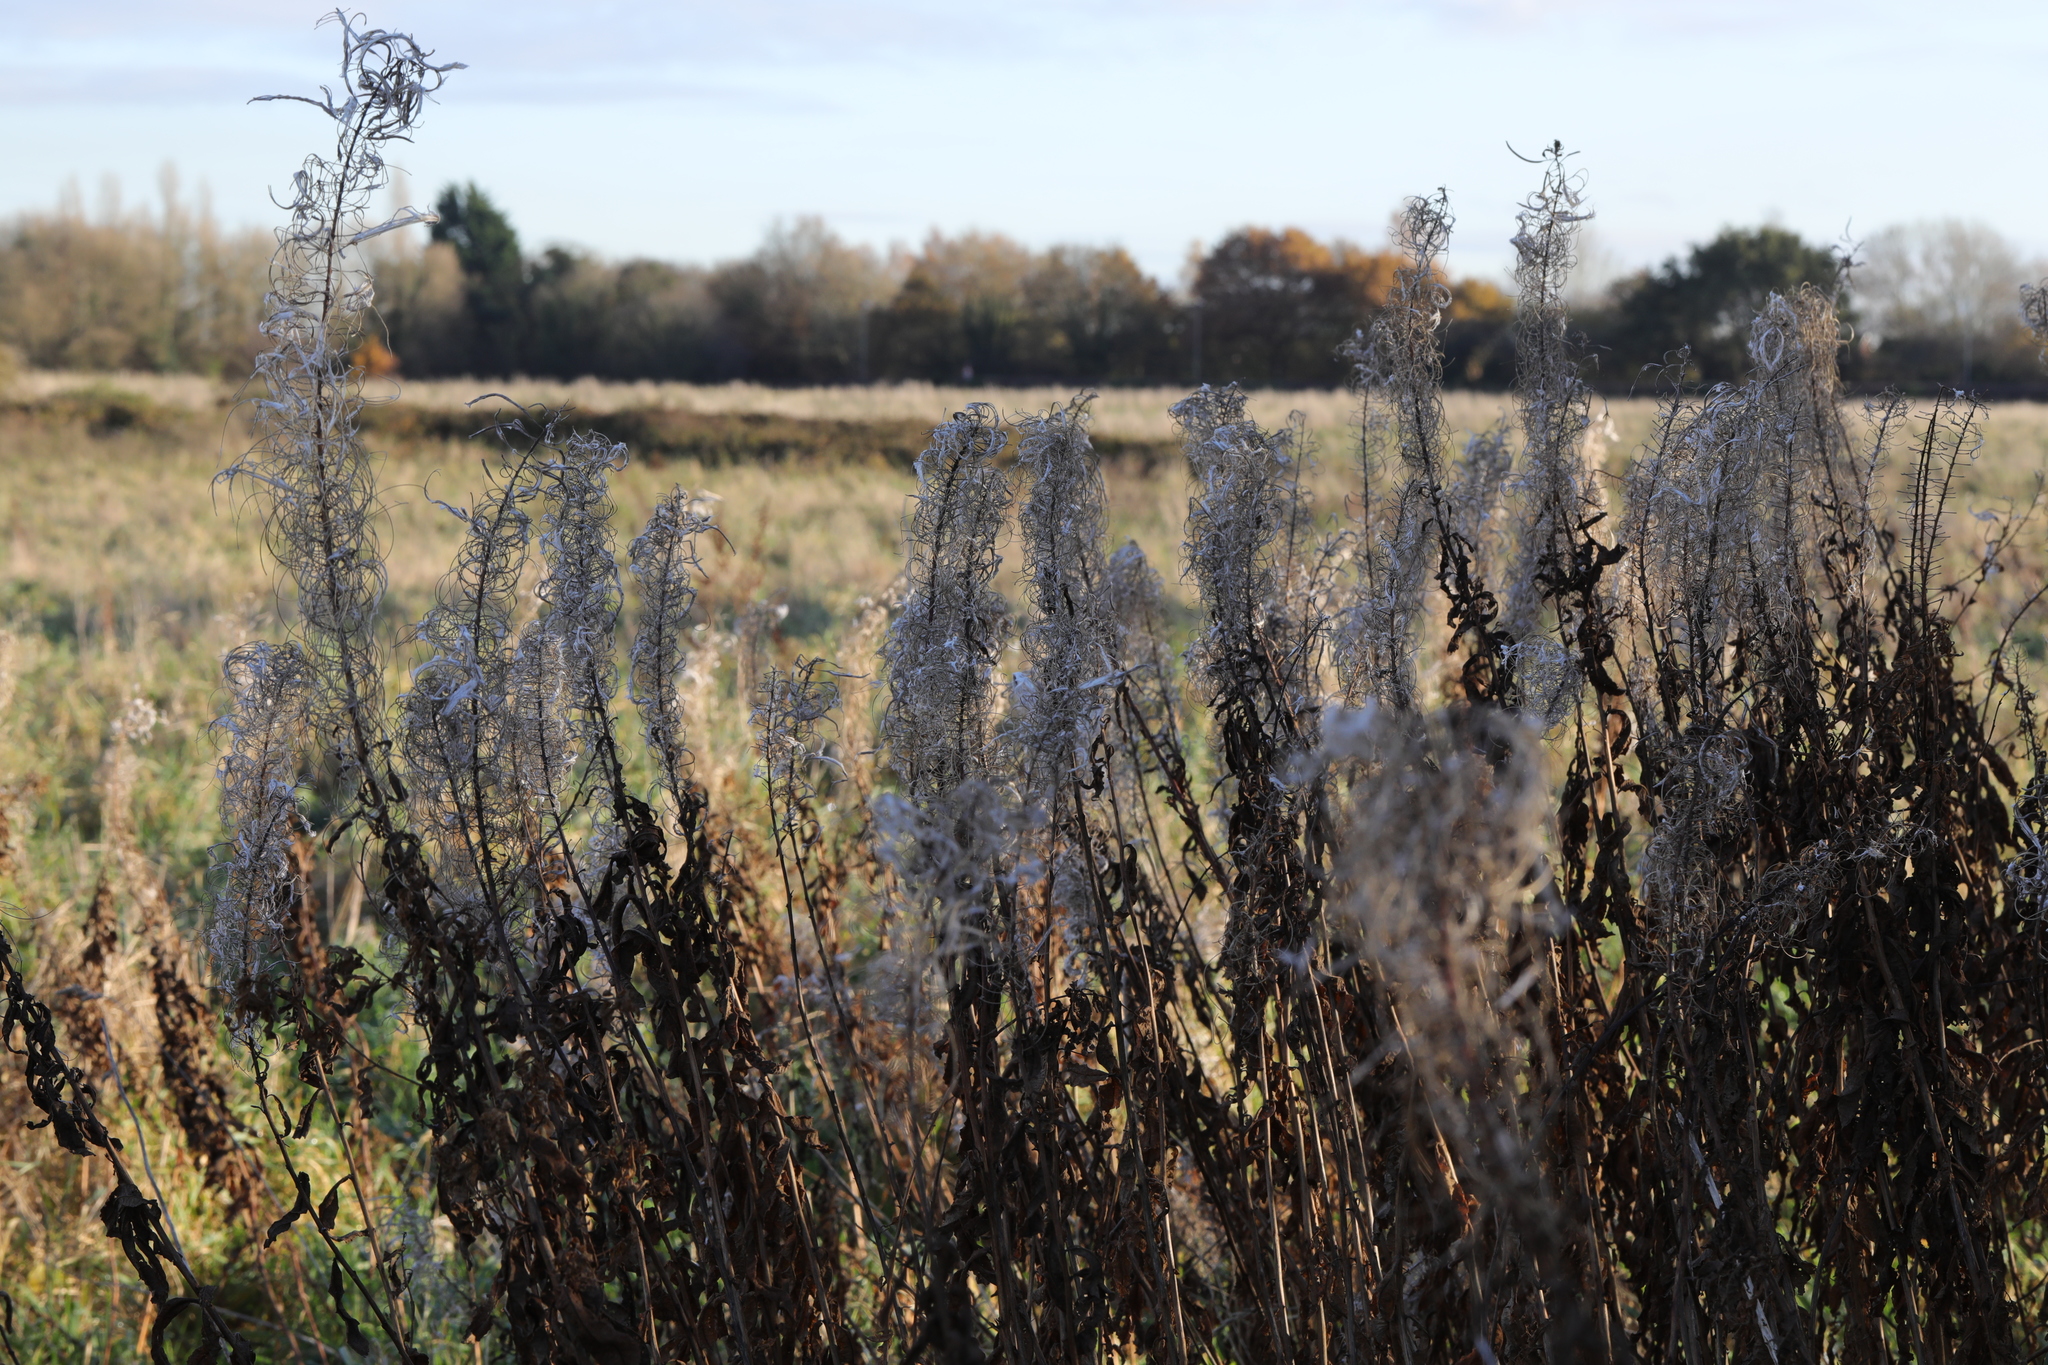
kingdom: Plantae
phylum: Tracheophyta
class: Magnoliopsida
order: Myrtales
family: Onagraceae
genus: Chamaenerion
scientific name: Chamaenerion angustifolium
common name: Fireweed
